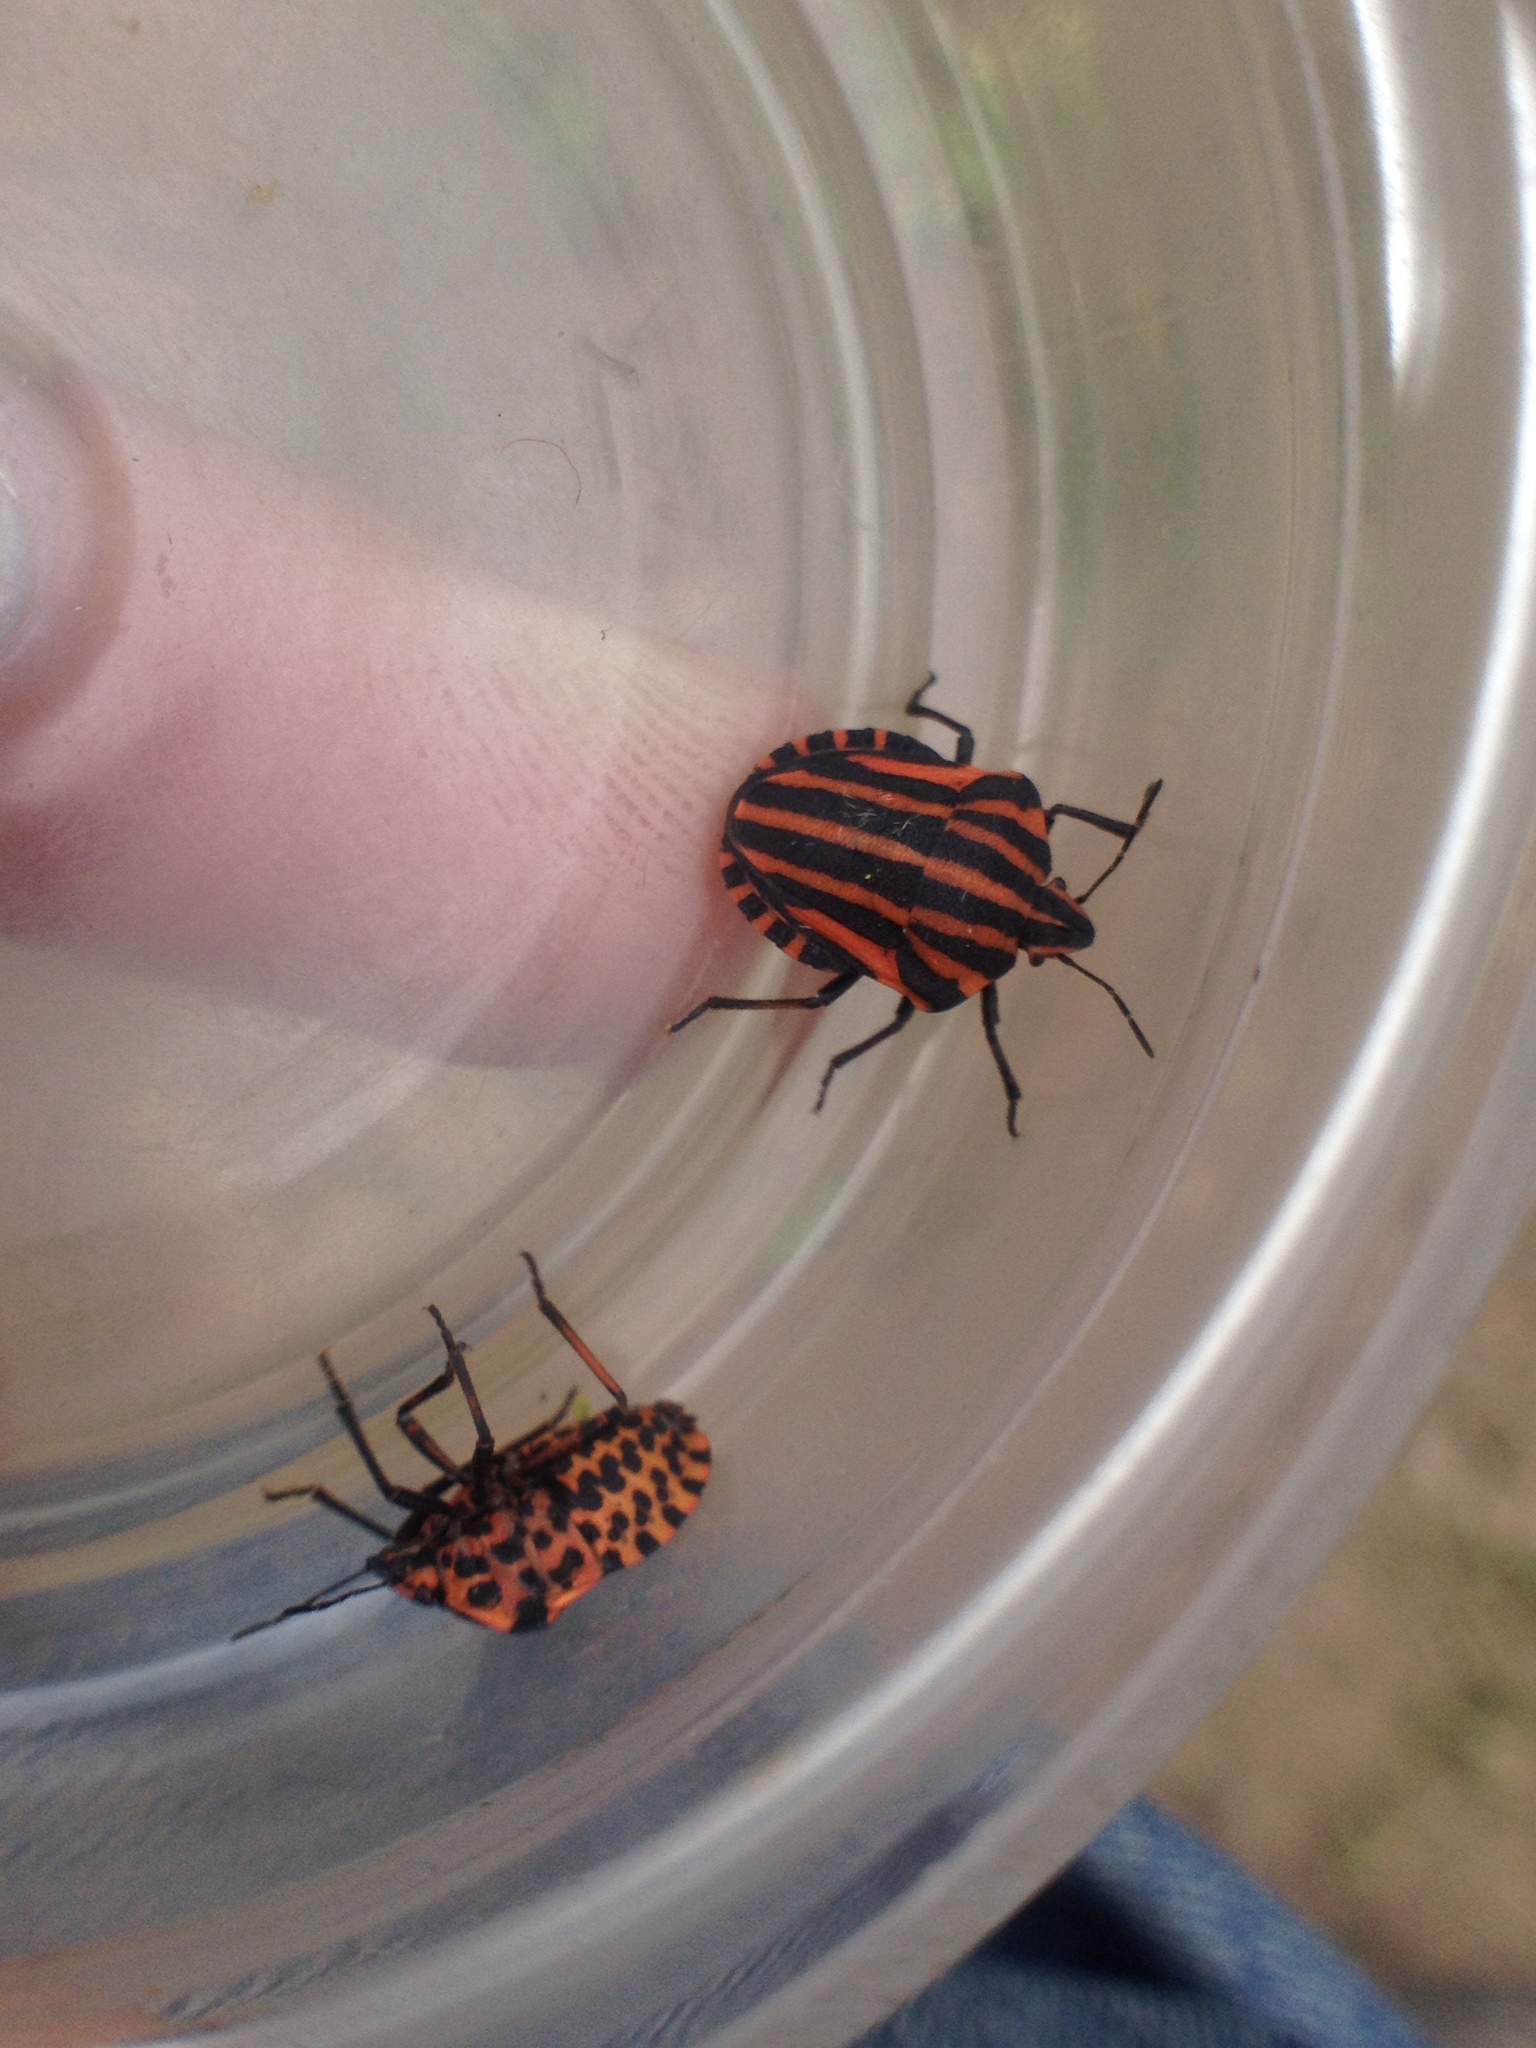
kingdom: Animalia
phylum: Arthropoda
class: Insecta
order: Hemiptera
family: Pentatomidae
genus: Graphosoma
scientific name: Graphosoma italicum
